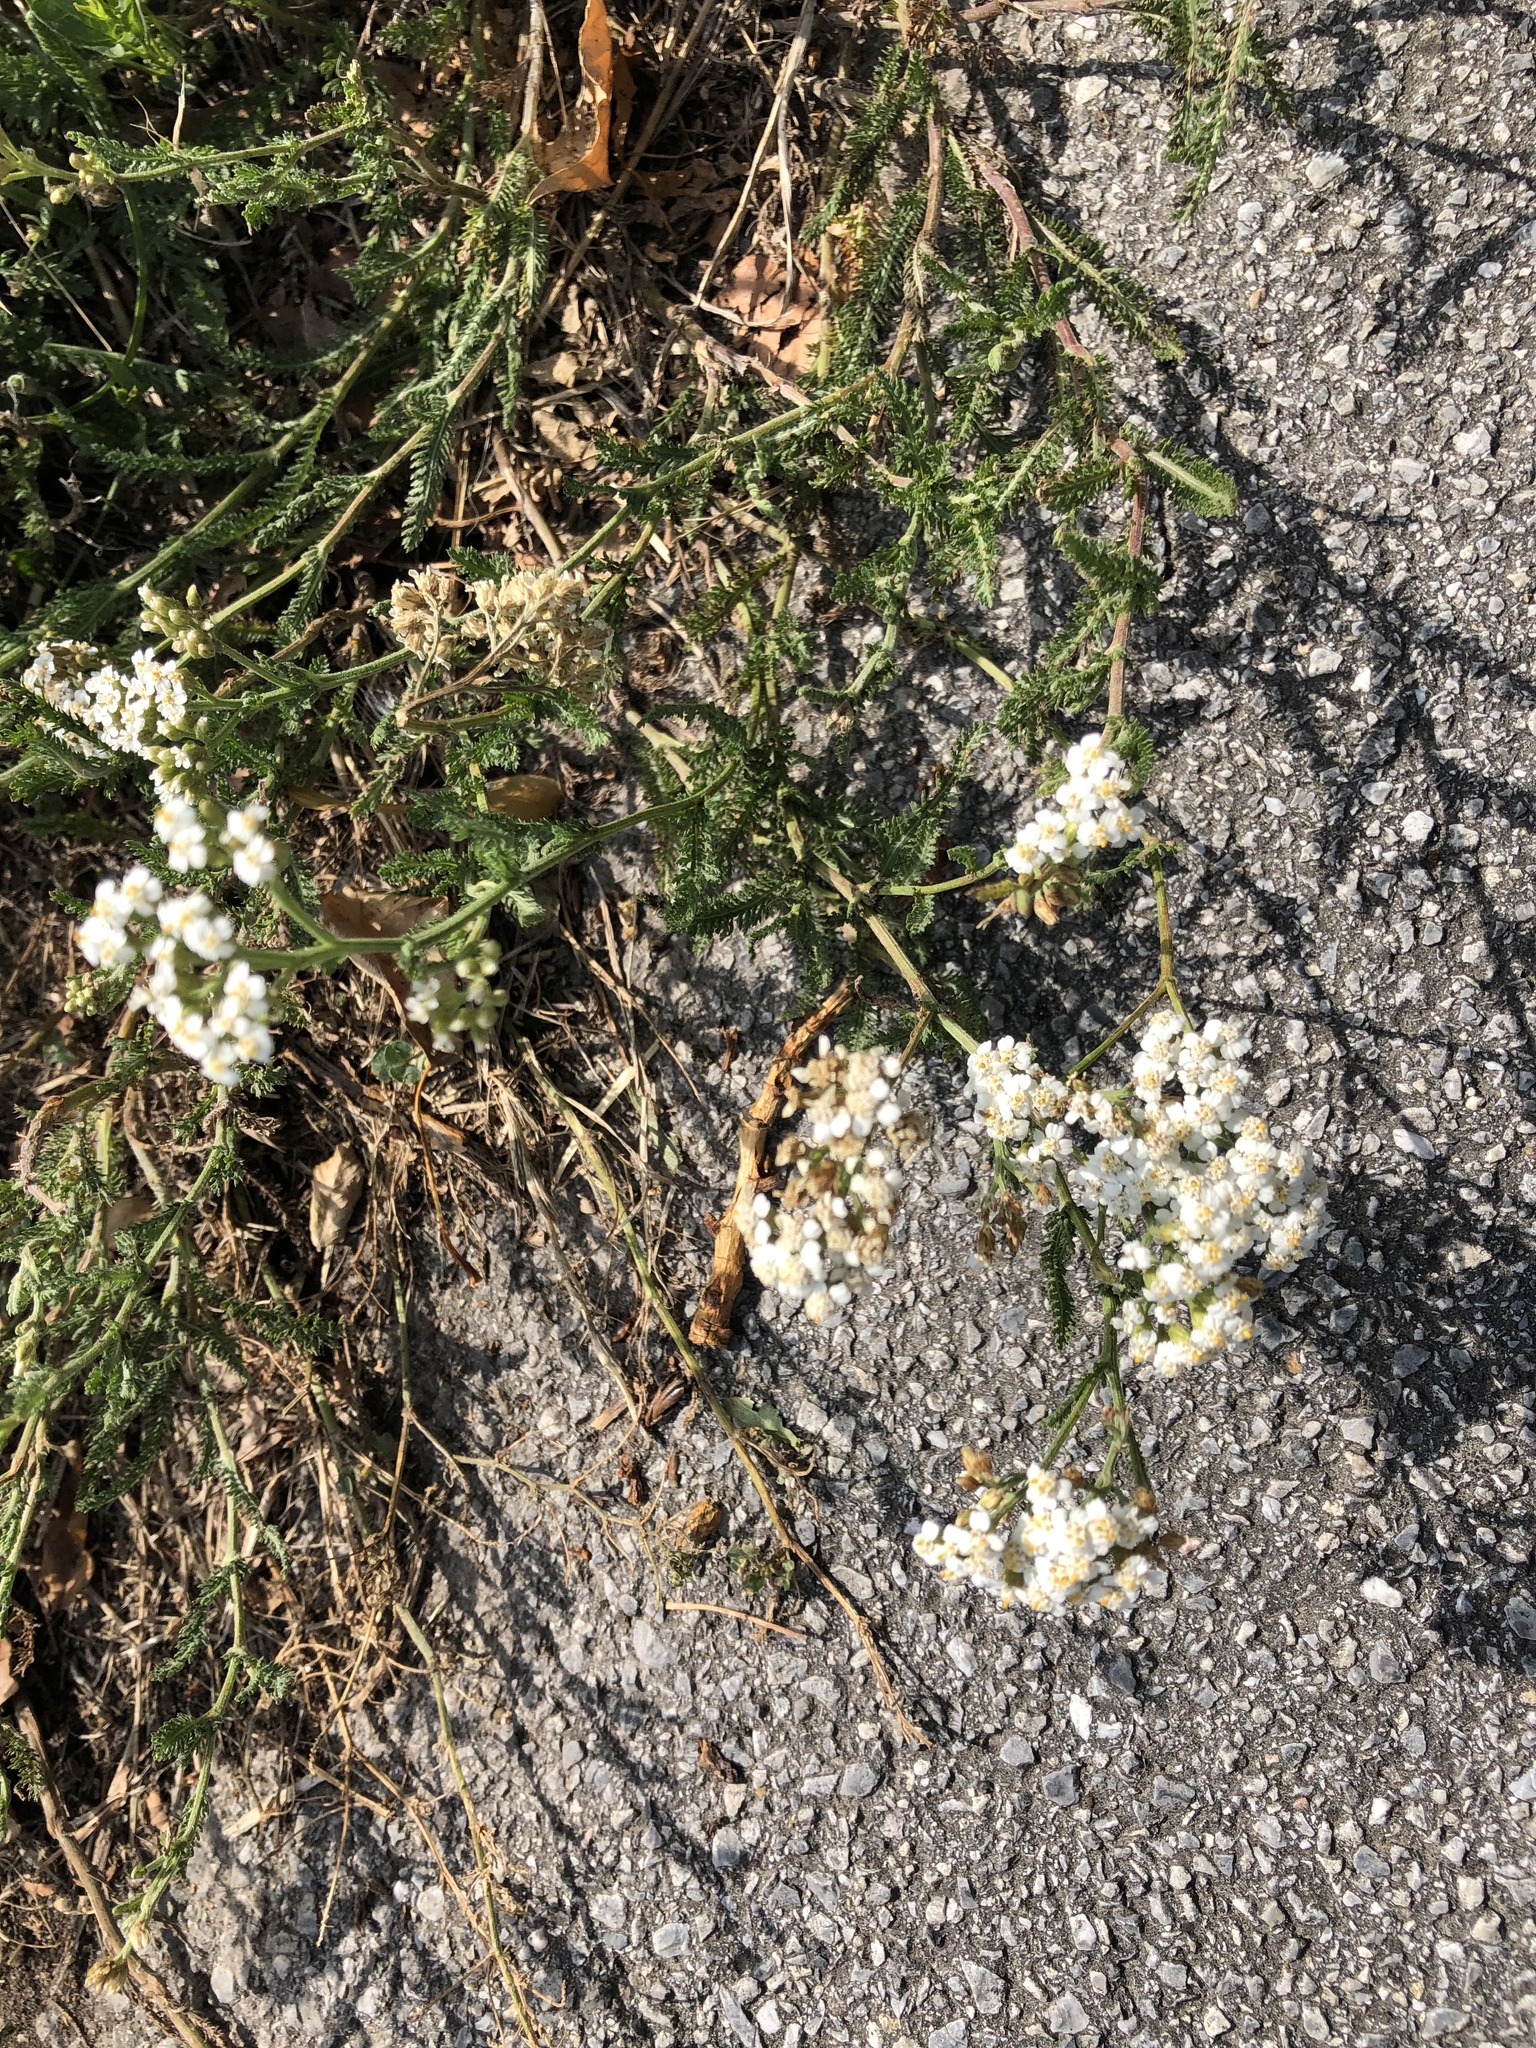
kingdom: Plantae
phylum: Tracheophyta
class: Magnoliopsida
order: Asterales
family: Asteraceae
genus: Achillea
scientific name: Achillea collina
